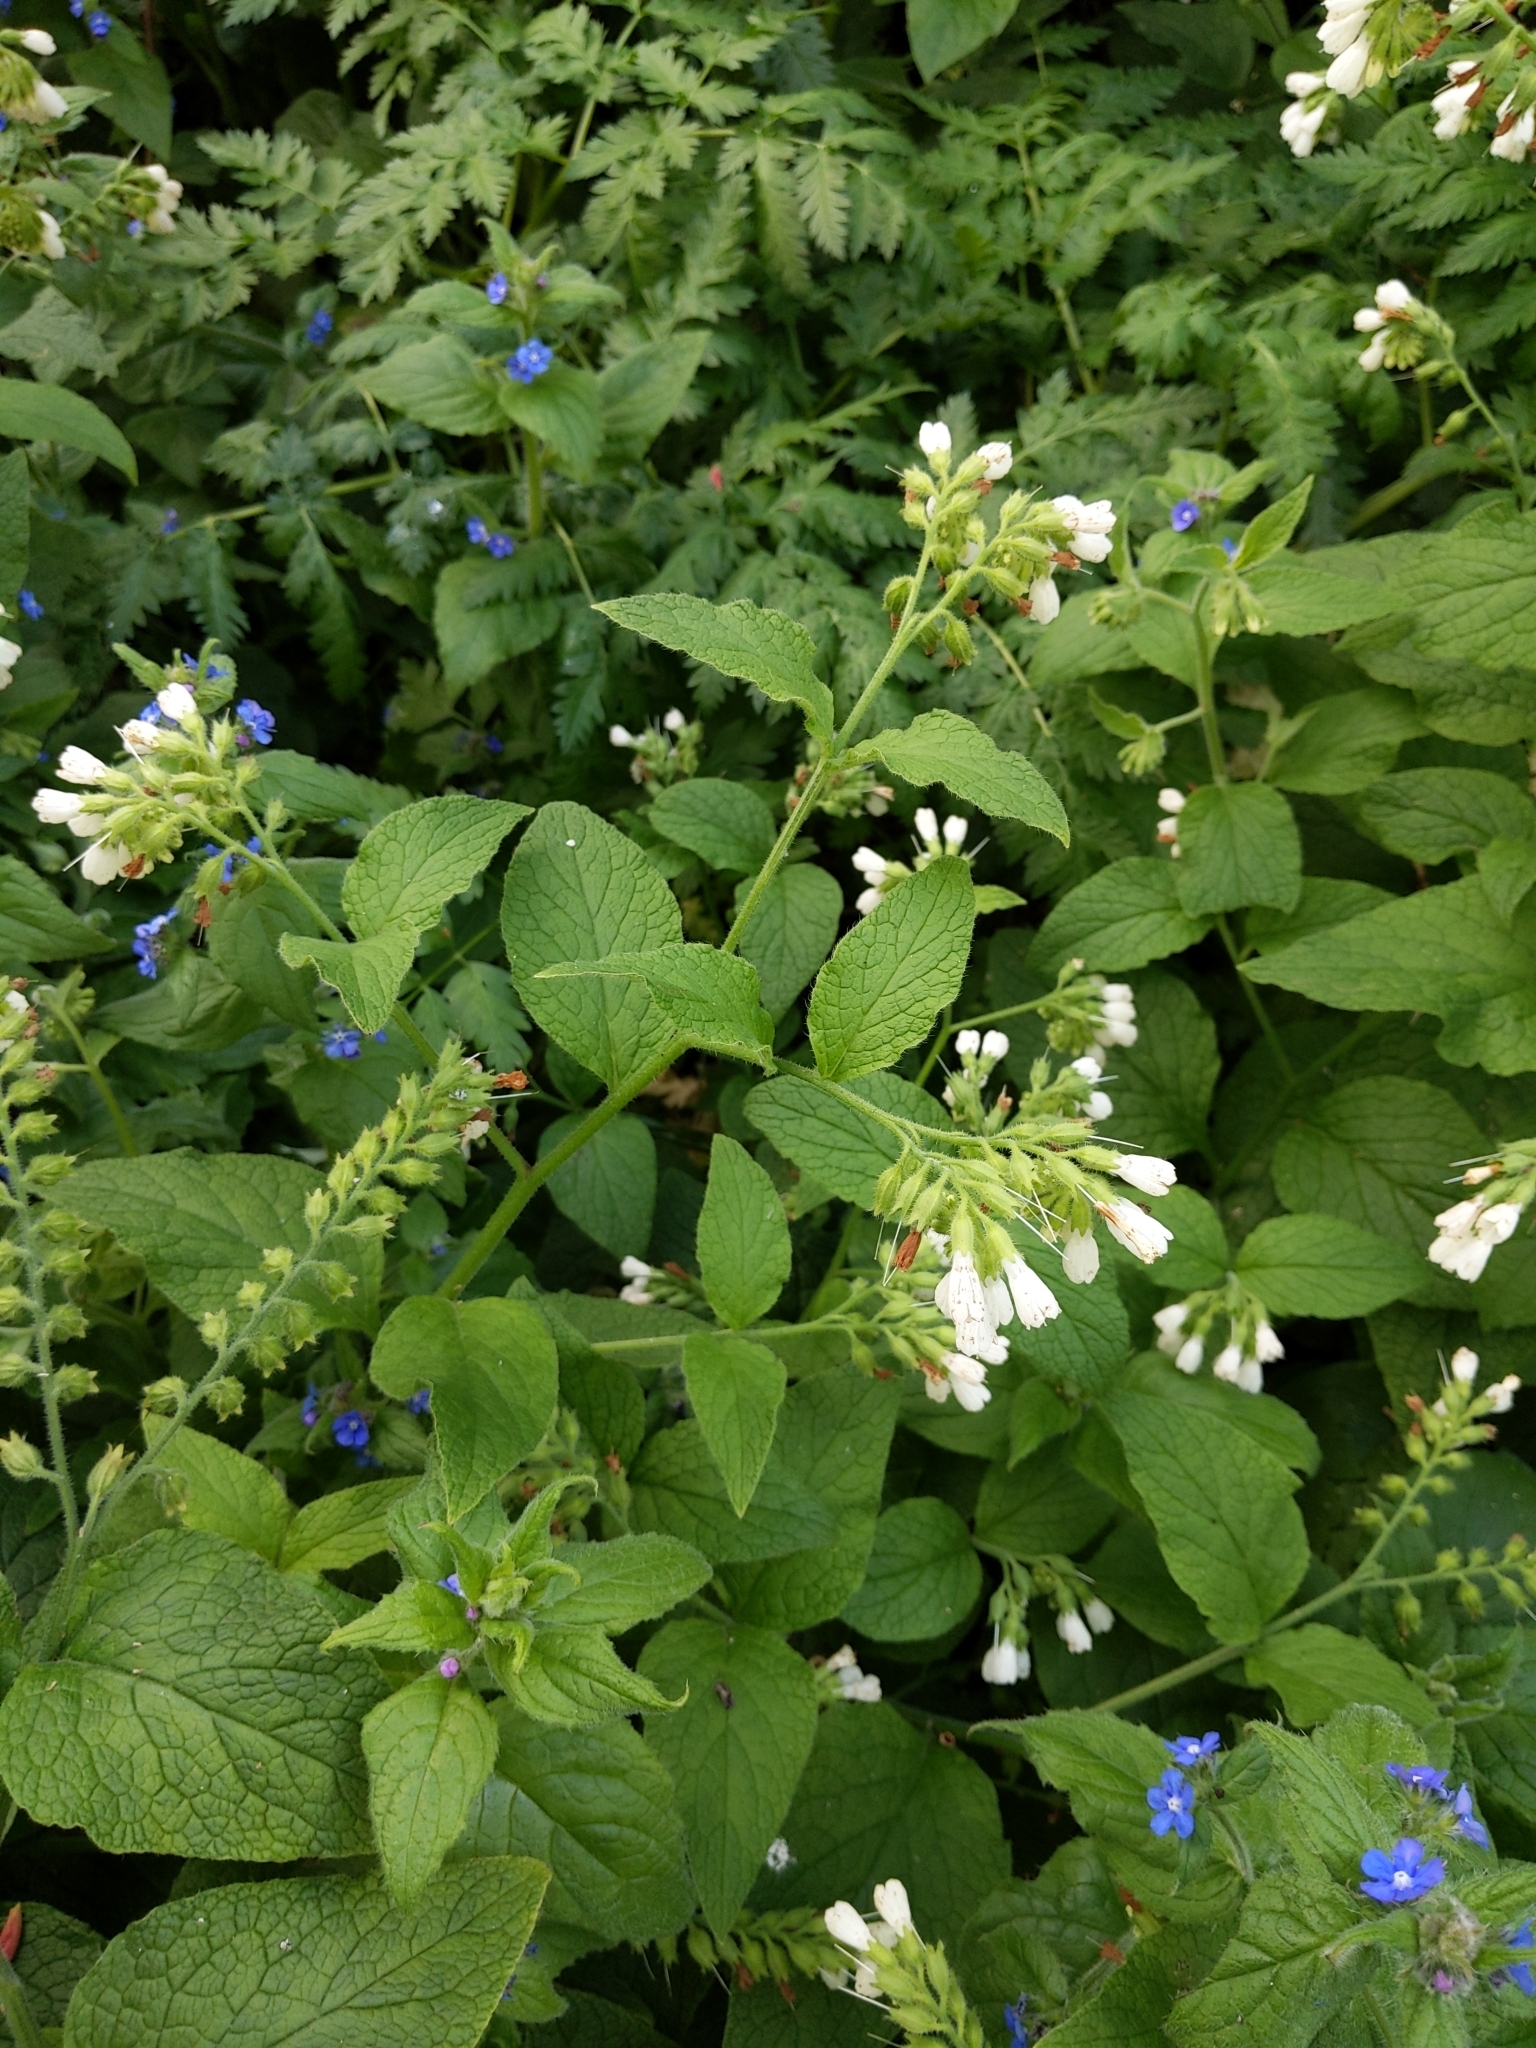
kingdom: Plantae
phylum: Tracheophyta
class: Magnoliopsida
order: Boraginales
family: Boraginaceae
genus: Symphytum
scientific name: Symphytum orientale
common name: White comfrey
